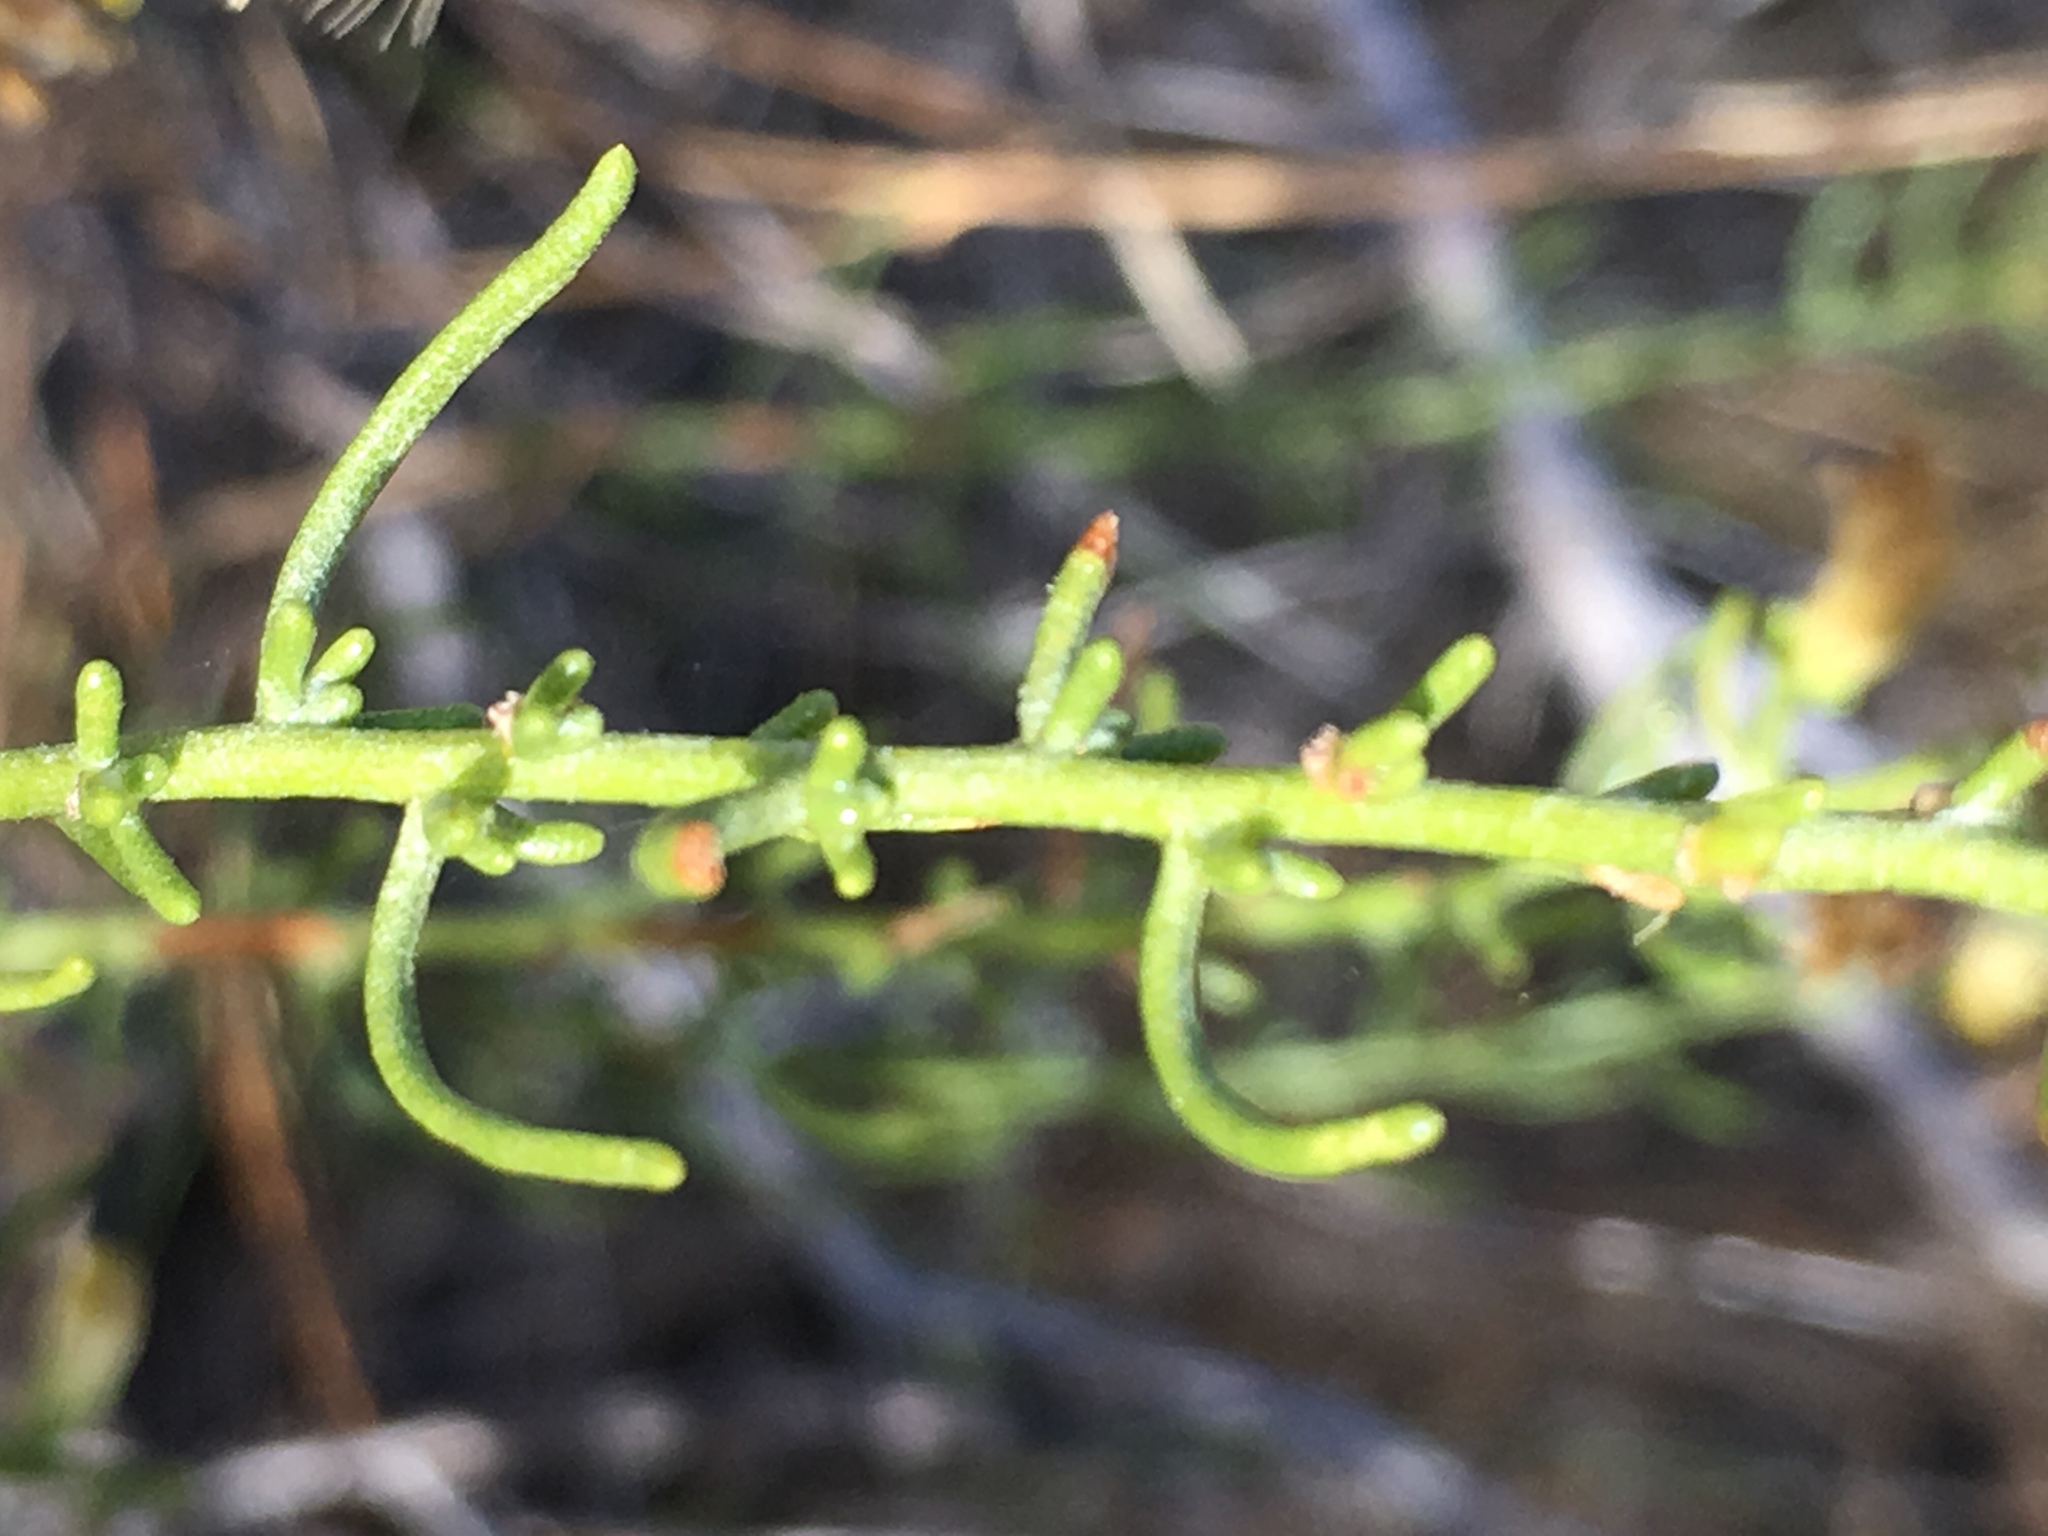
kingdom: Plantae
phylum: Tracheophyta
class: Magnoliopsida
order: Asterales
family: Asteraceae
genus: Ericameria
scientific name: Ericameria brachylepis
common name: Boundary goldenbush
